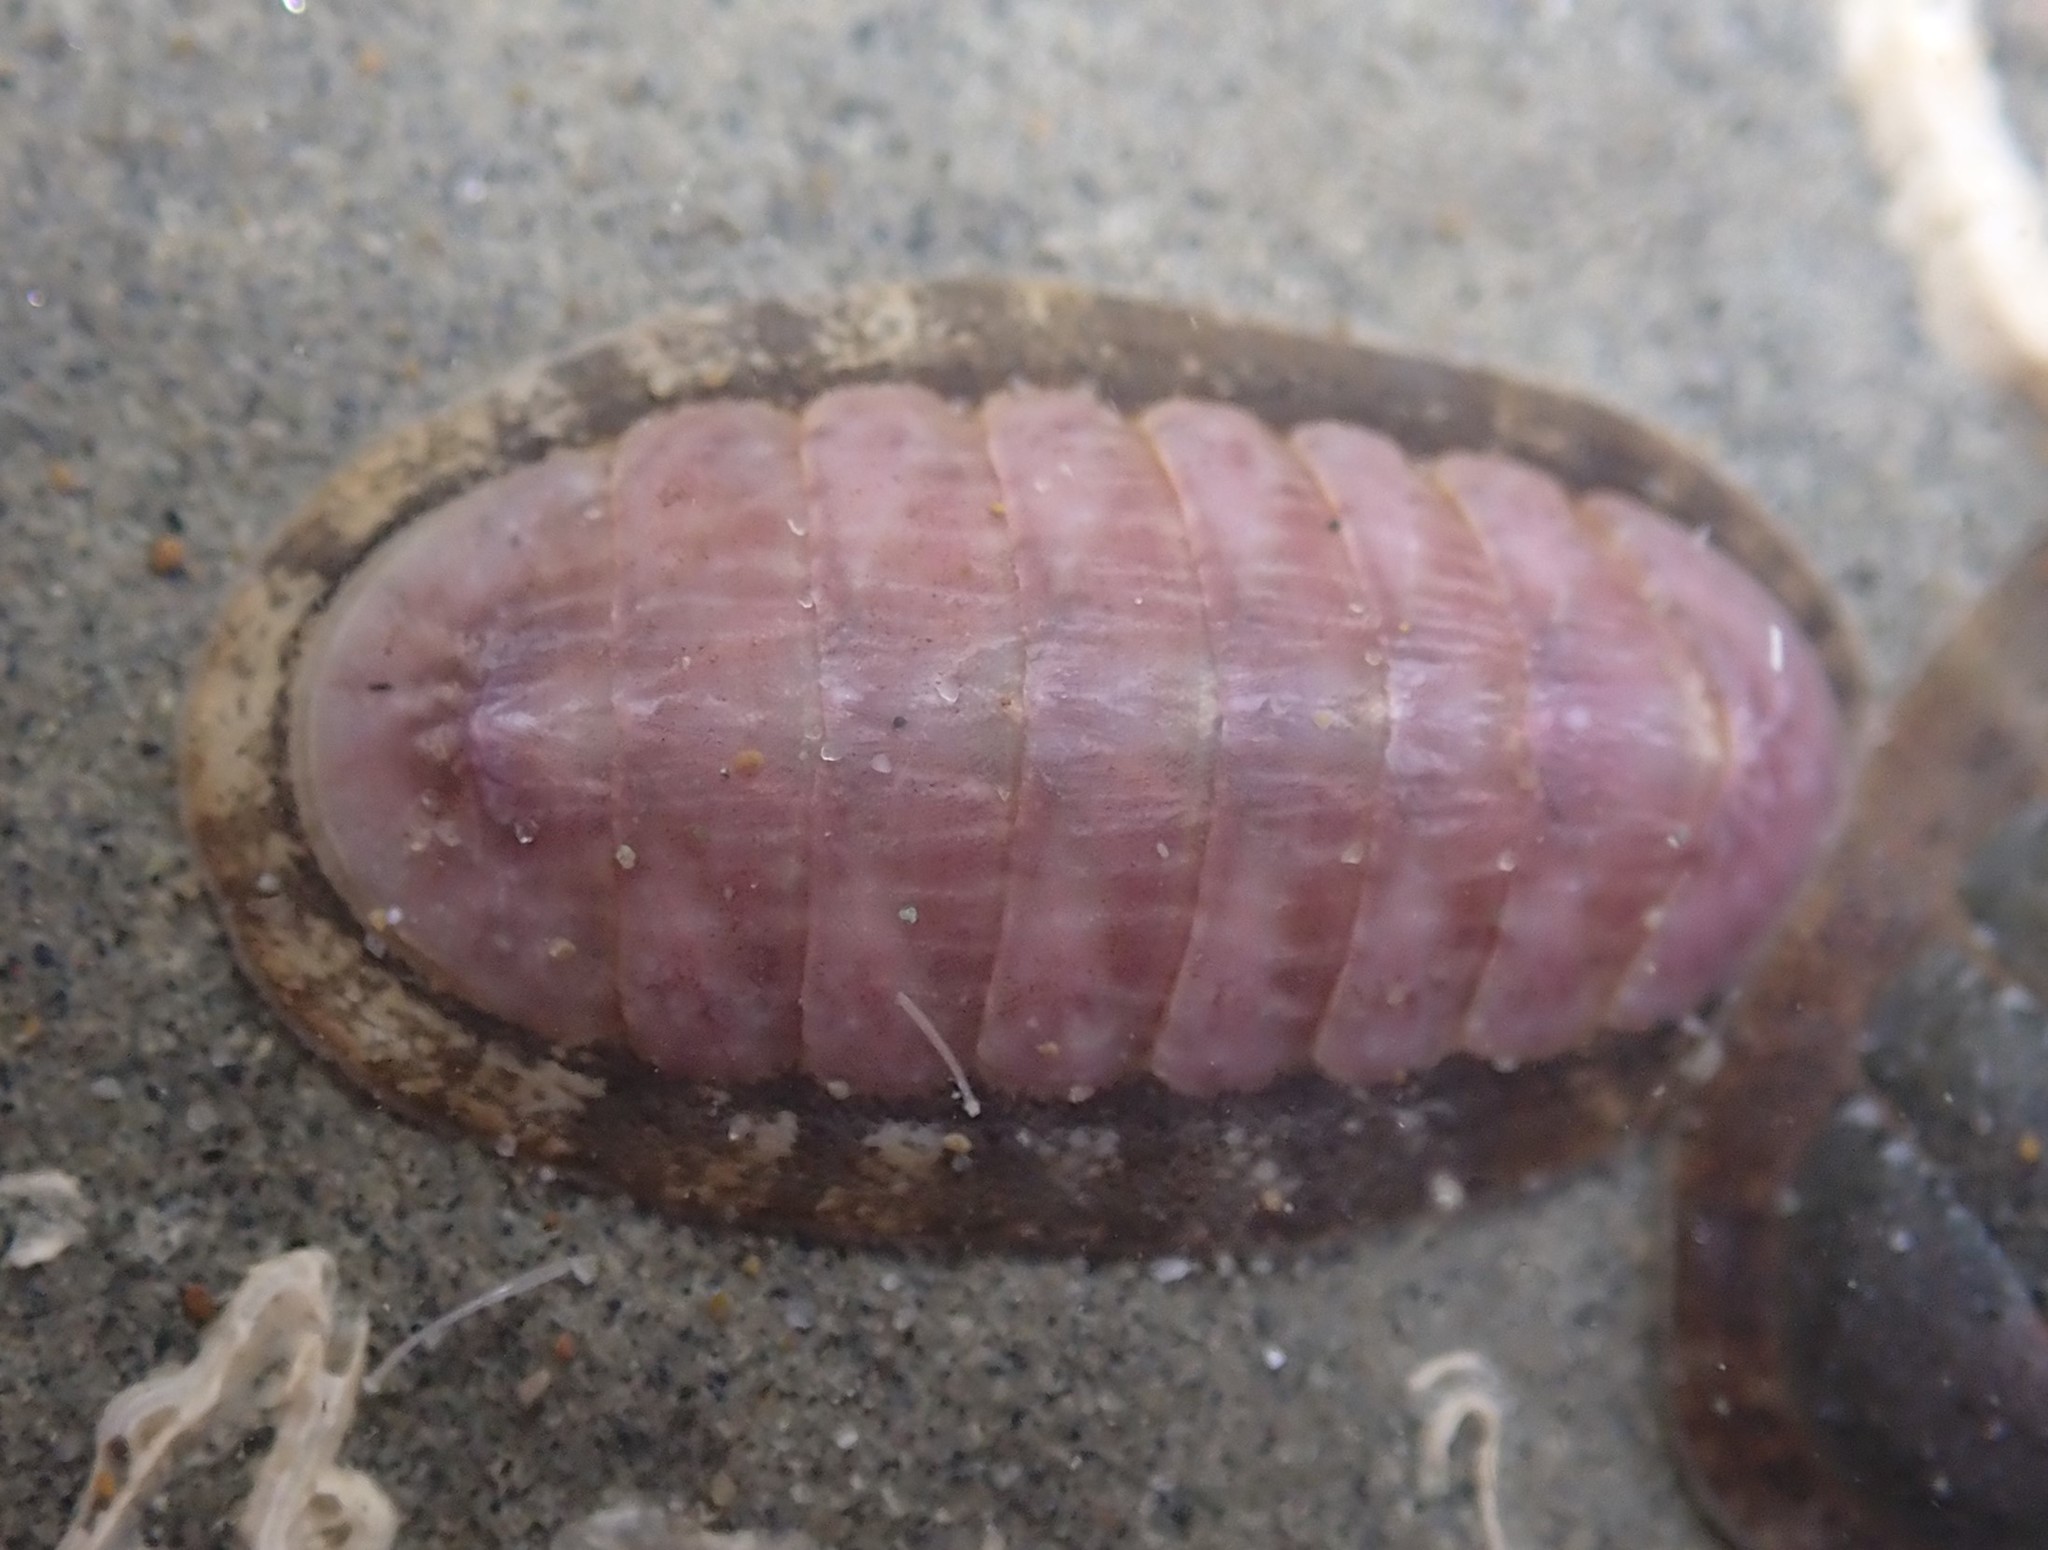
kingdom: Animalia
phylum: Mollusca
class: Polyplacophora
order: Chitonida
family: Ischnochitonidae
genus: Ischnochiton
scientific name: Ischnochiton maorianus
